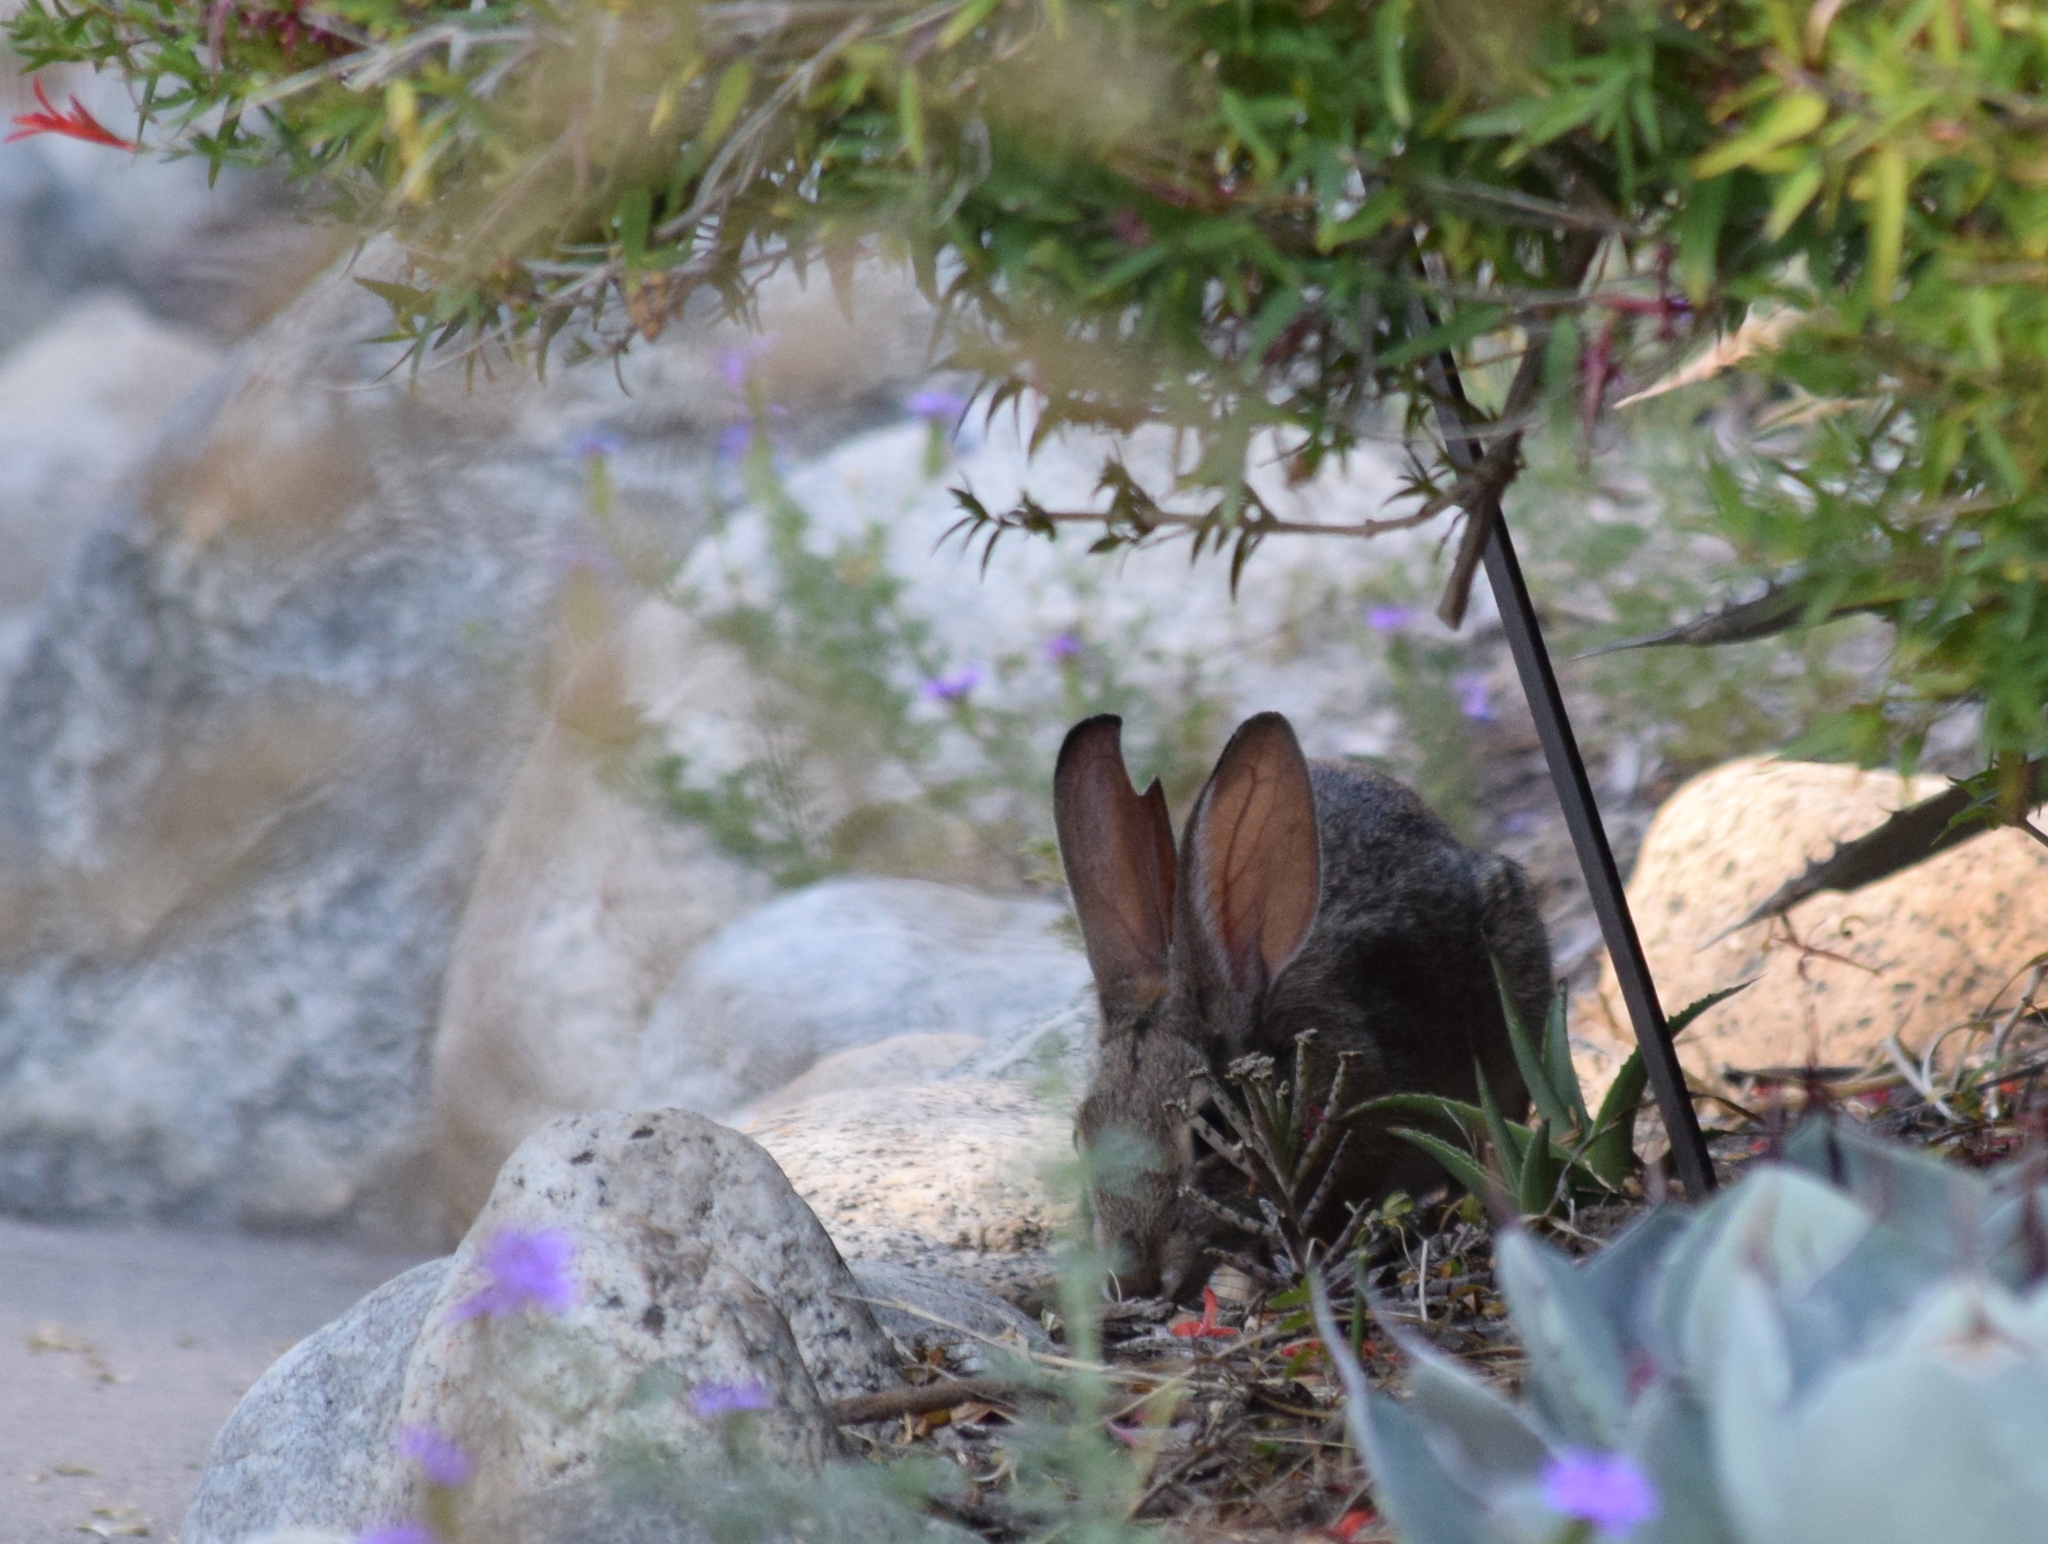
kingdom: Animalia
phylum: Chordata
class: Mammalia
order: Lagomorpha
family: Leporidae
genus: Sylvilagus
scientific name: Sylvilagus audubonii
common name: Desert cottontail
